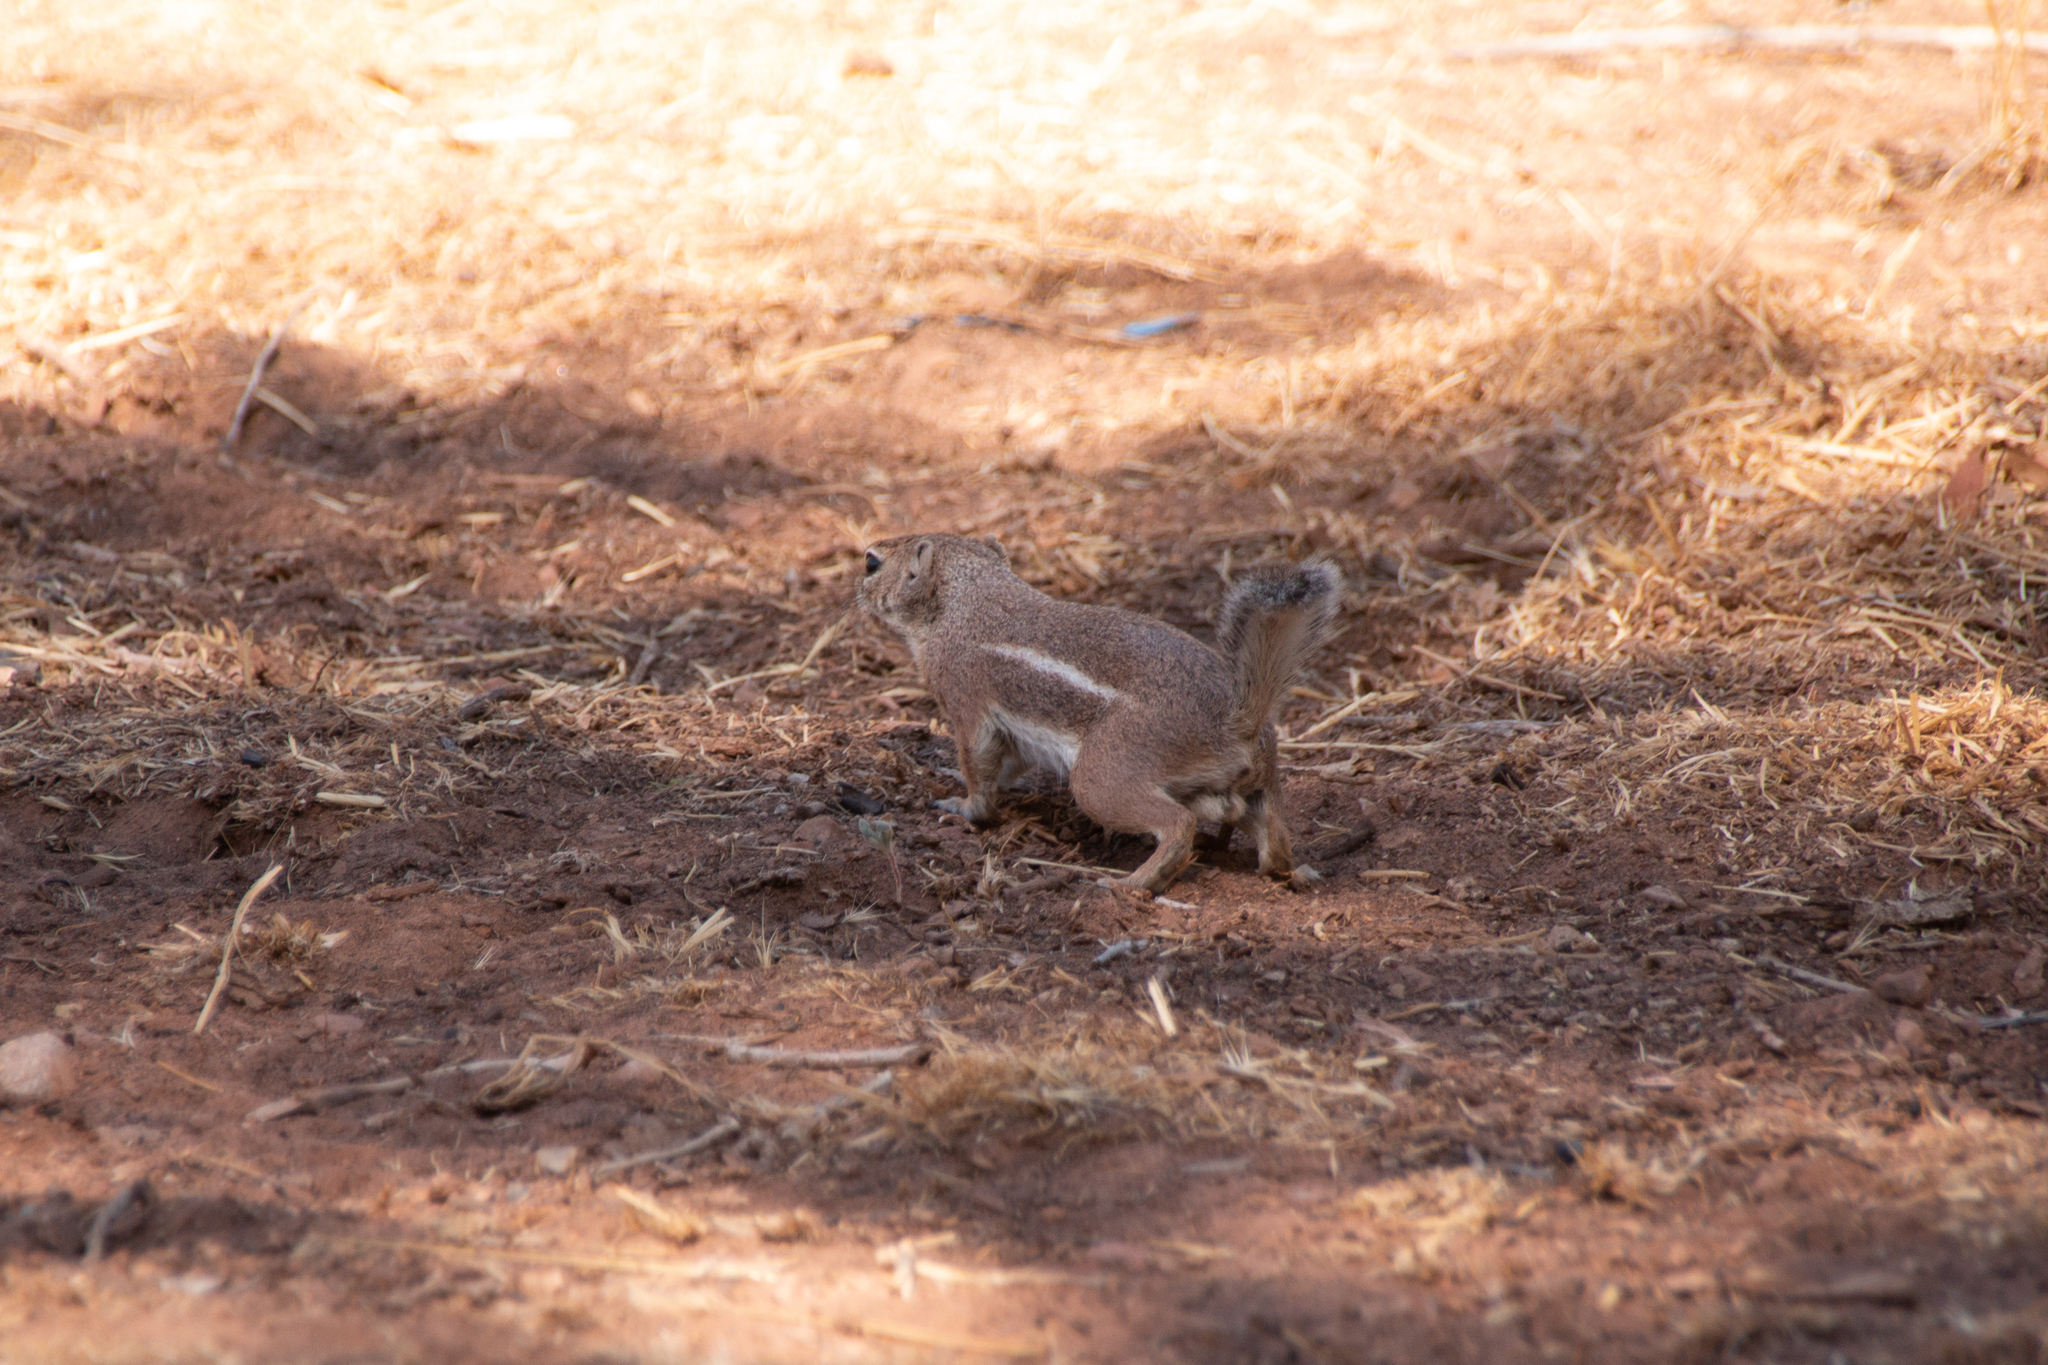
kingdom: Animalia
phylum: Chordata
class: Mammalia
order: Rodentia
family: Sciuridae
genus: Ammospermophilus
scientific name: Ammospermophilus leucurus
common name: White-tailed antelope squirrel
